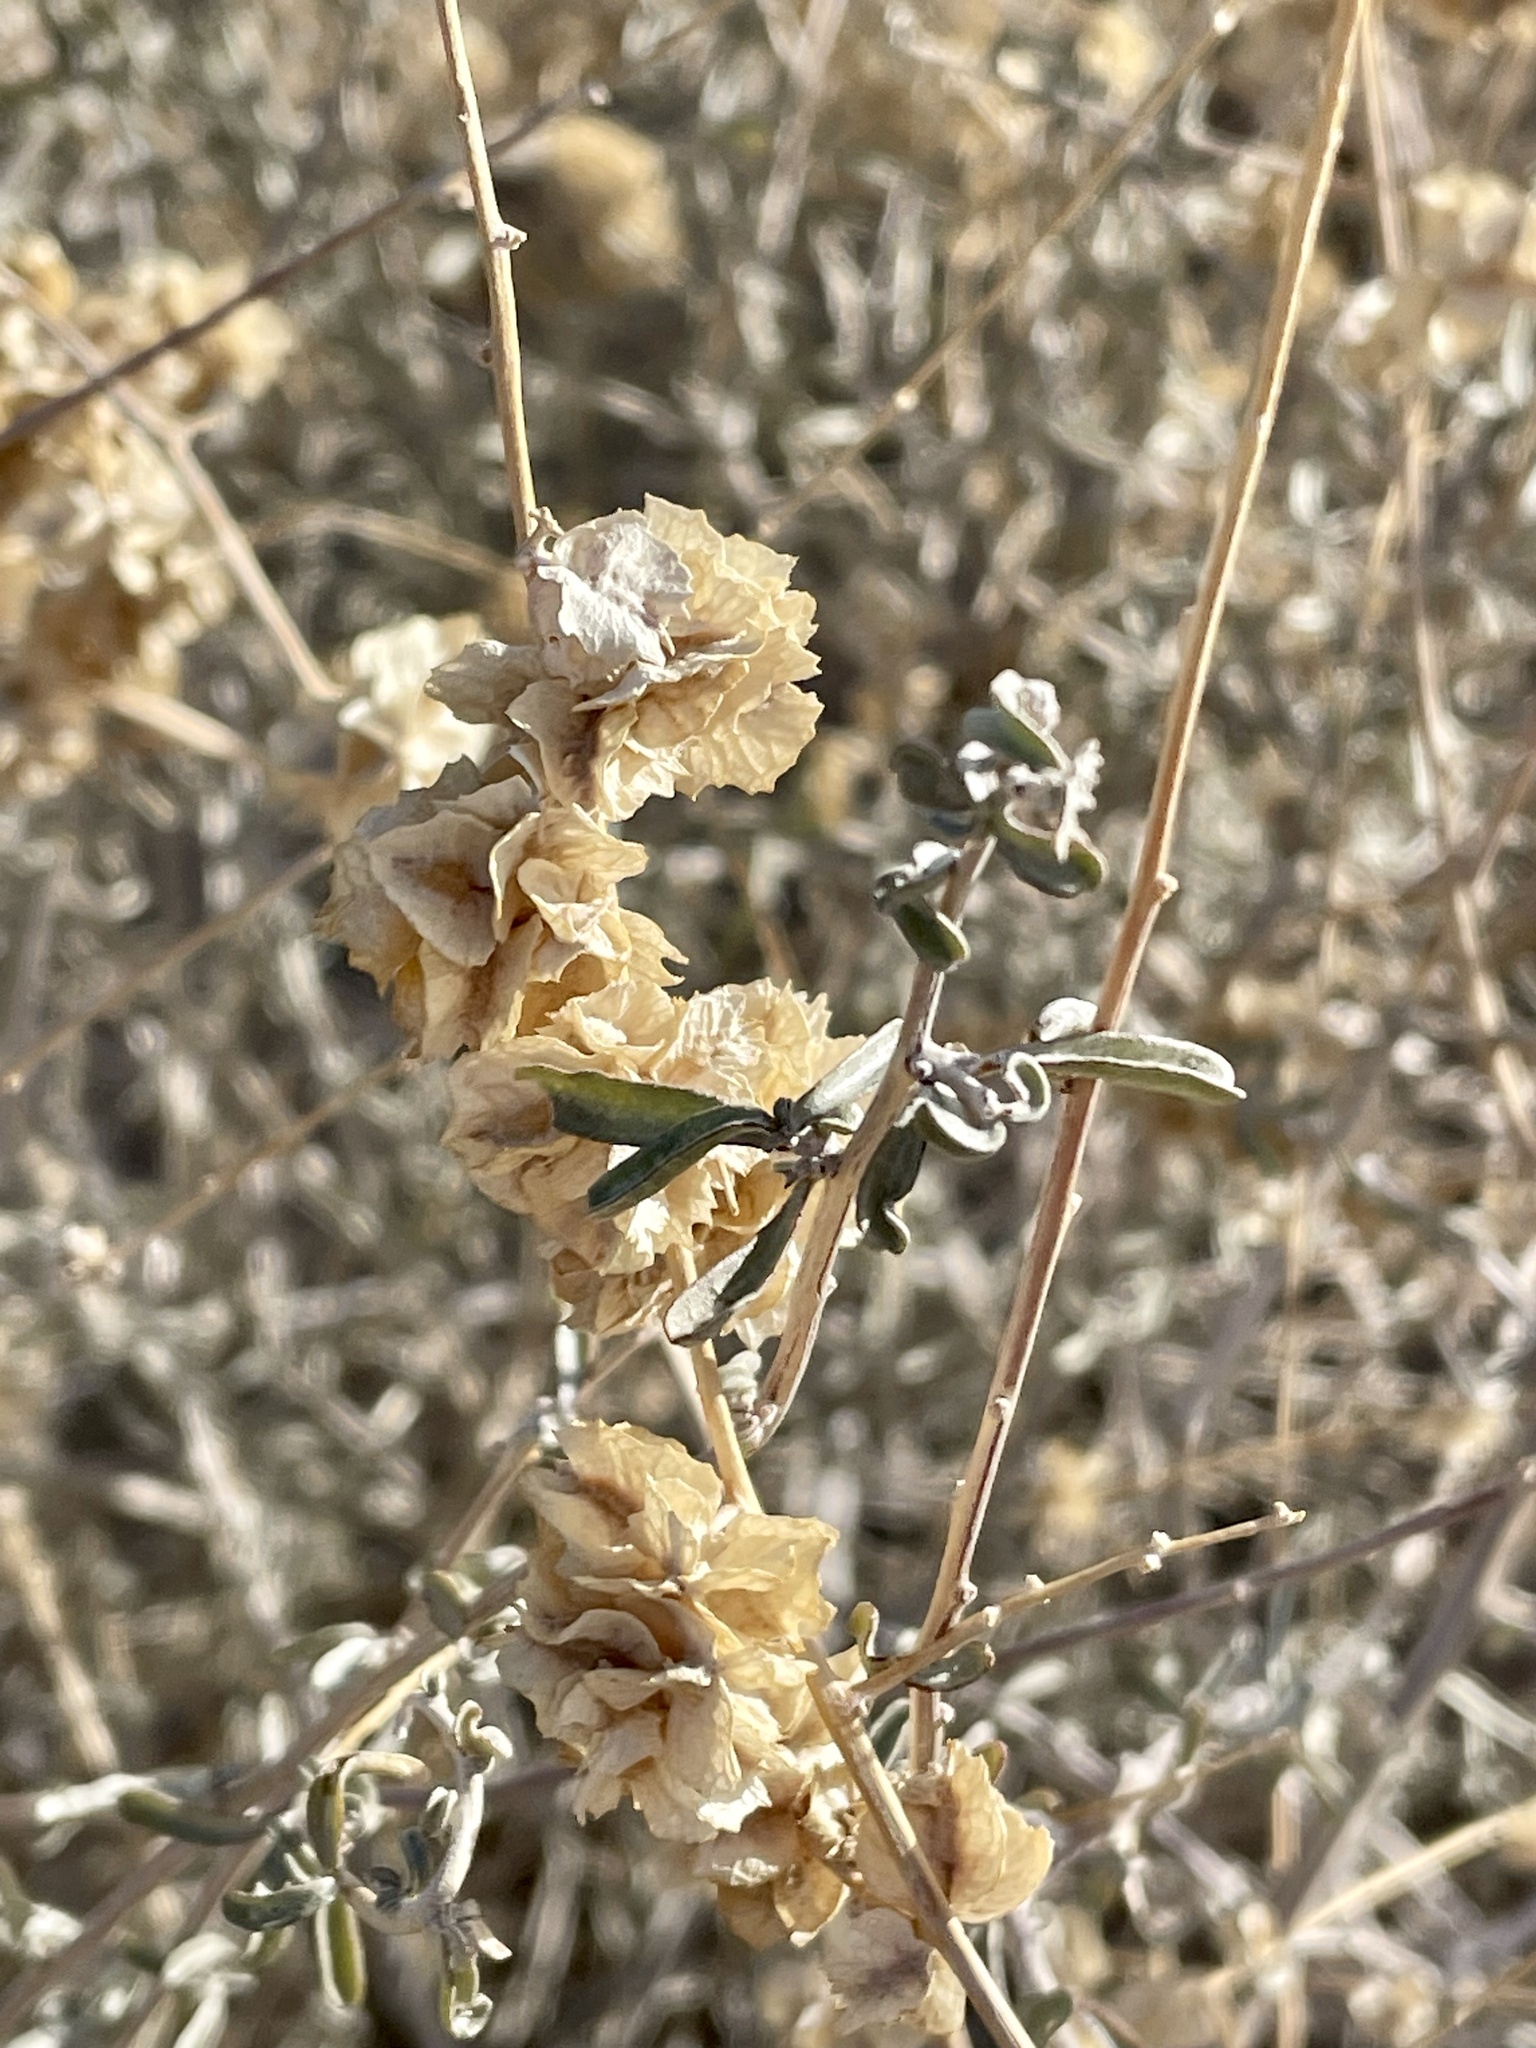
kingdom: Plantae
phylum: Tracheophyta
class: Magnoliopsida
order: Caryophyllales
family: Amaranthaceae
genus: Atriplex
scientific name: Atriplex canescens
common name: Four-wing saltbush
